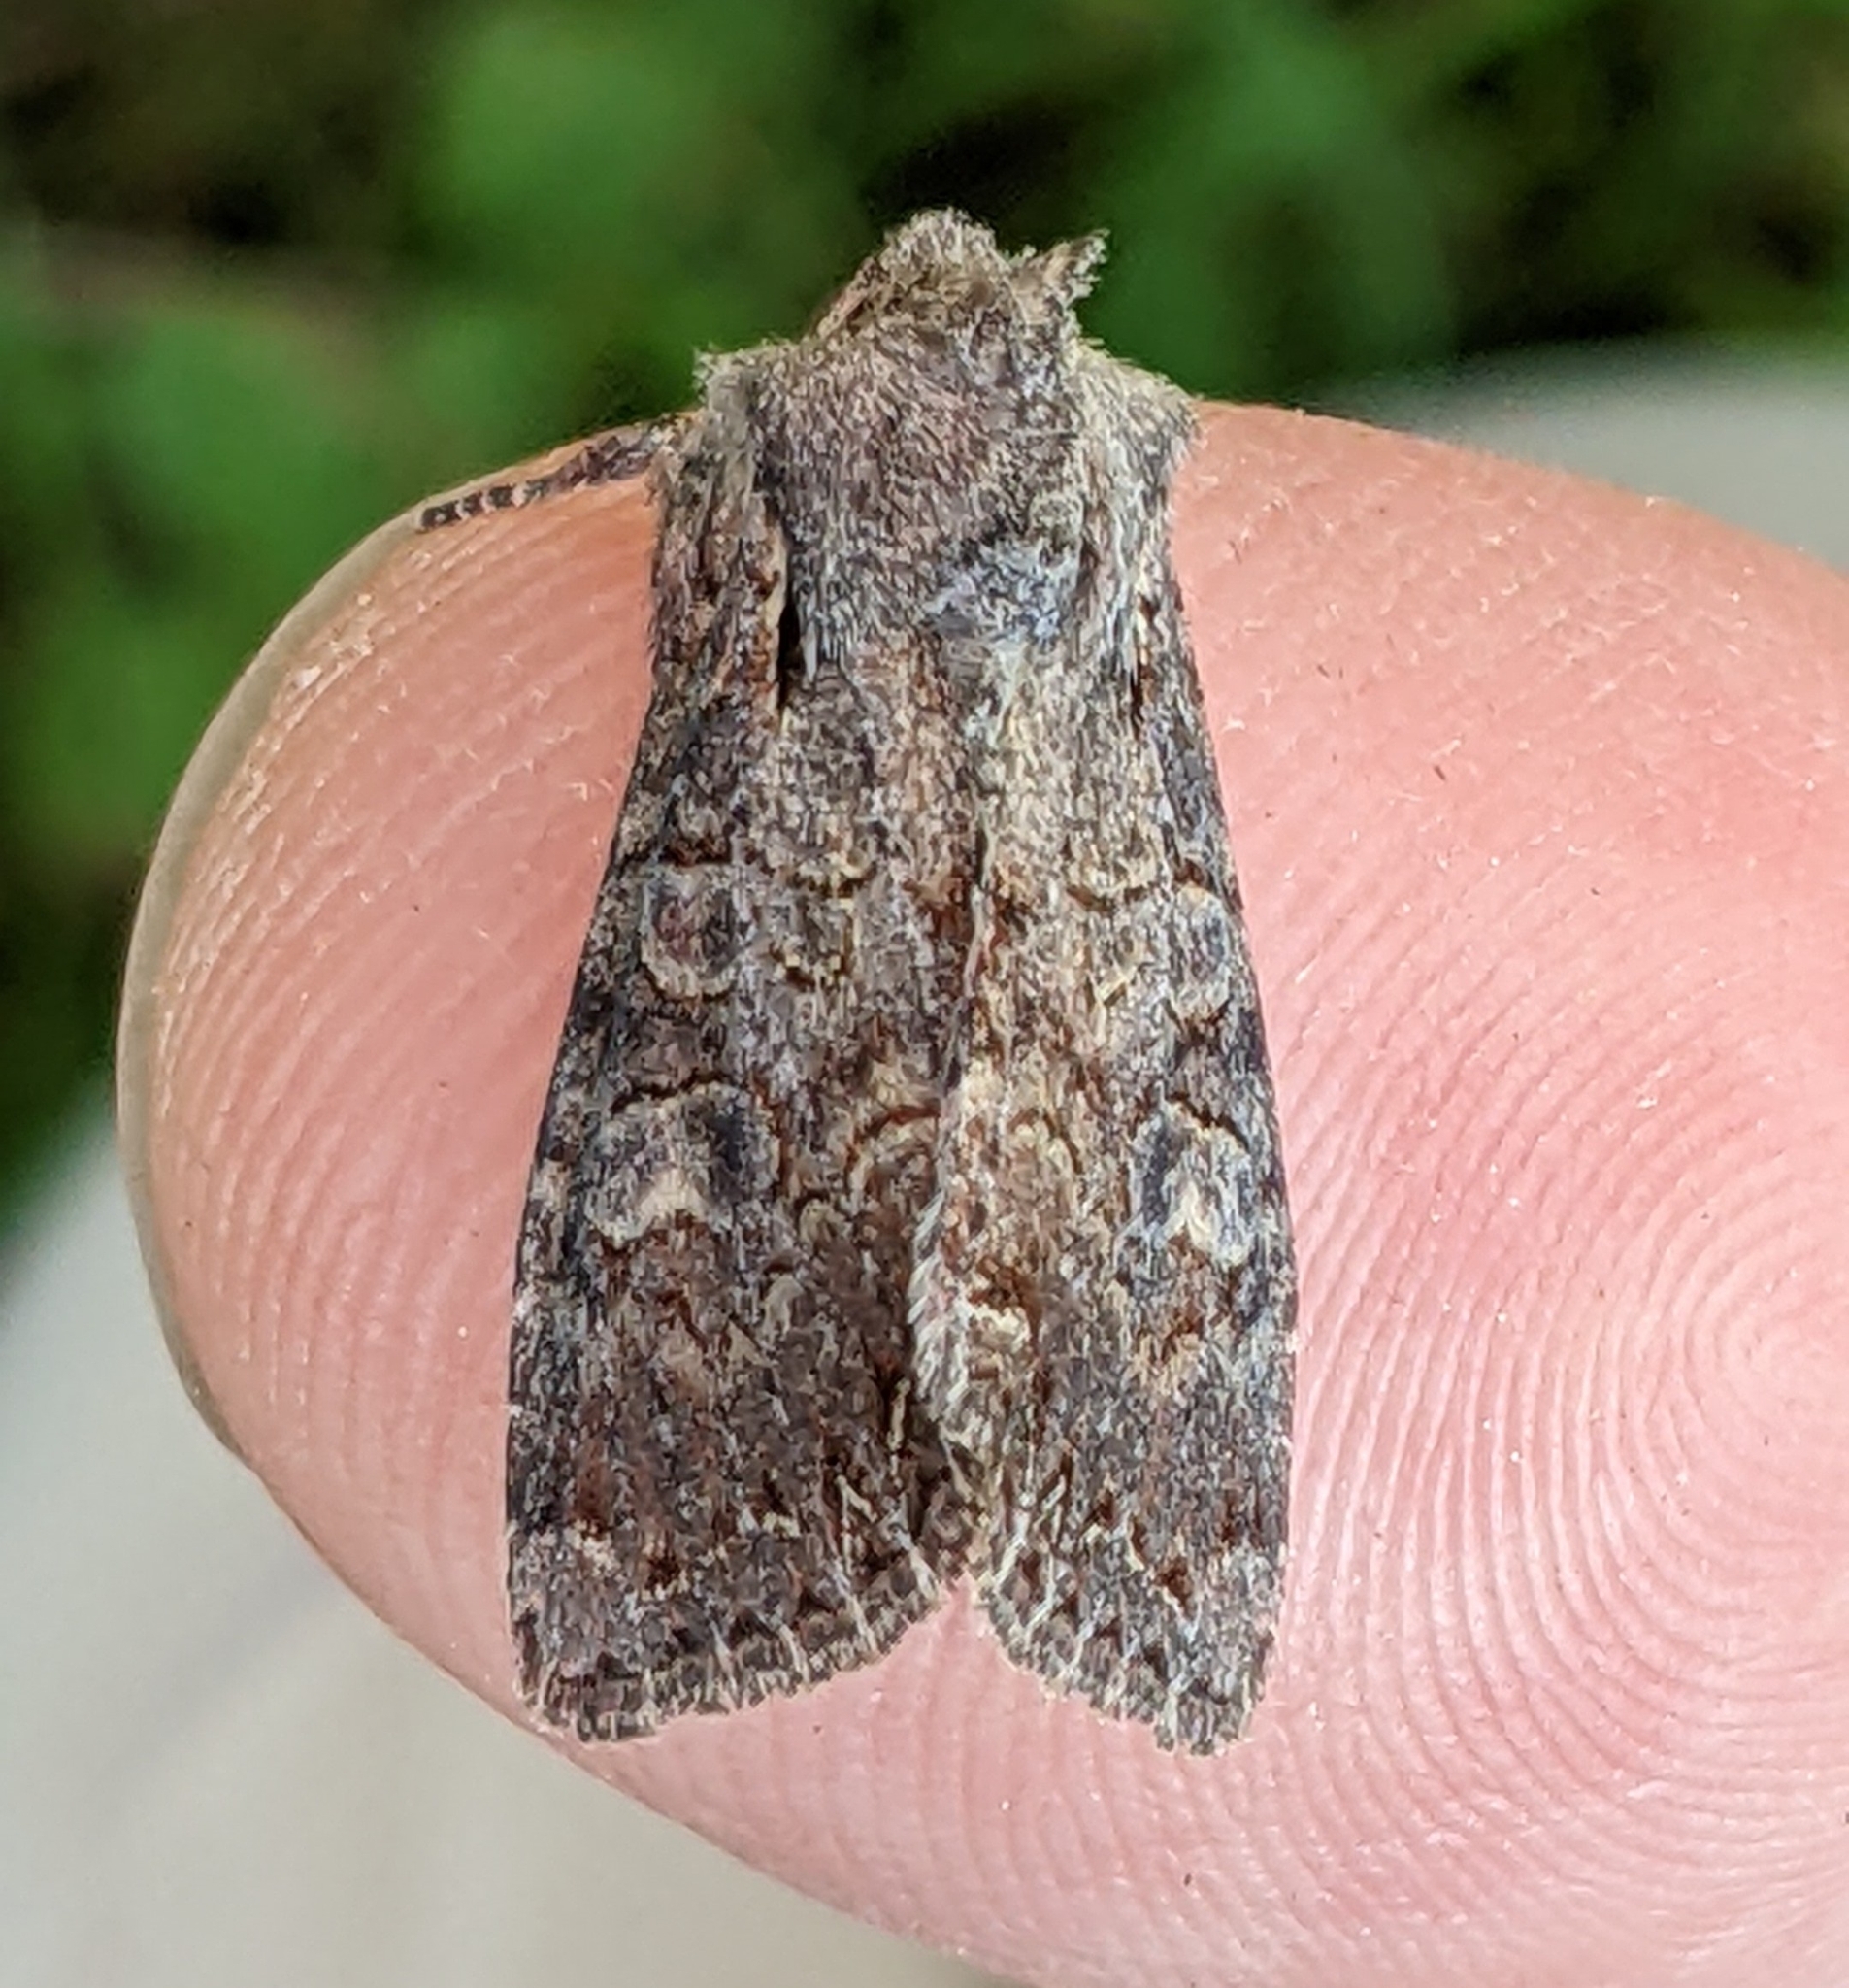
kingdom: Animalia
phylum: Arthropoda
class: Insecta
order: Lepidoptera
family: Noctuidae
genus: Lacanobia
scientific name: Lacanobia radix
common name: Garden arches moth
